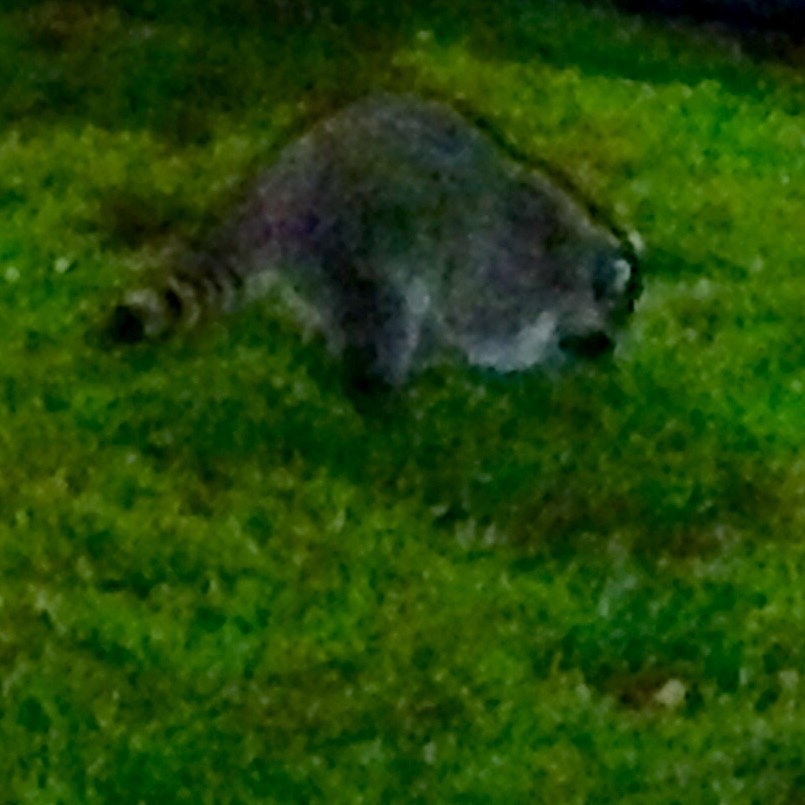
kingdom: Animalia
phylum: Chordata
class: Mammalia
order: Carnivora
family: Procyonidae
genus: Procyon
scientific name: Procyon lotor
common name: Raccoon
